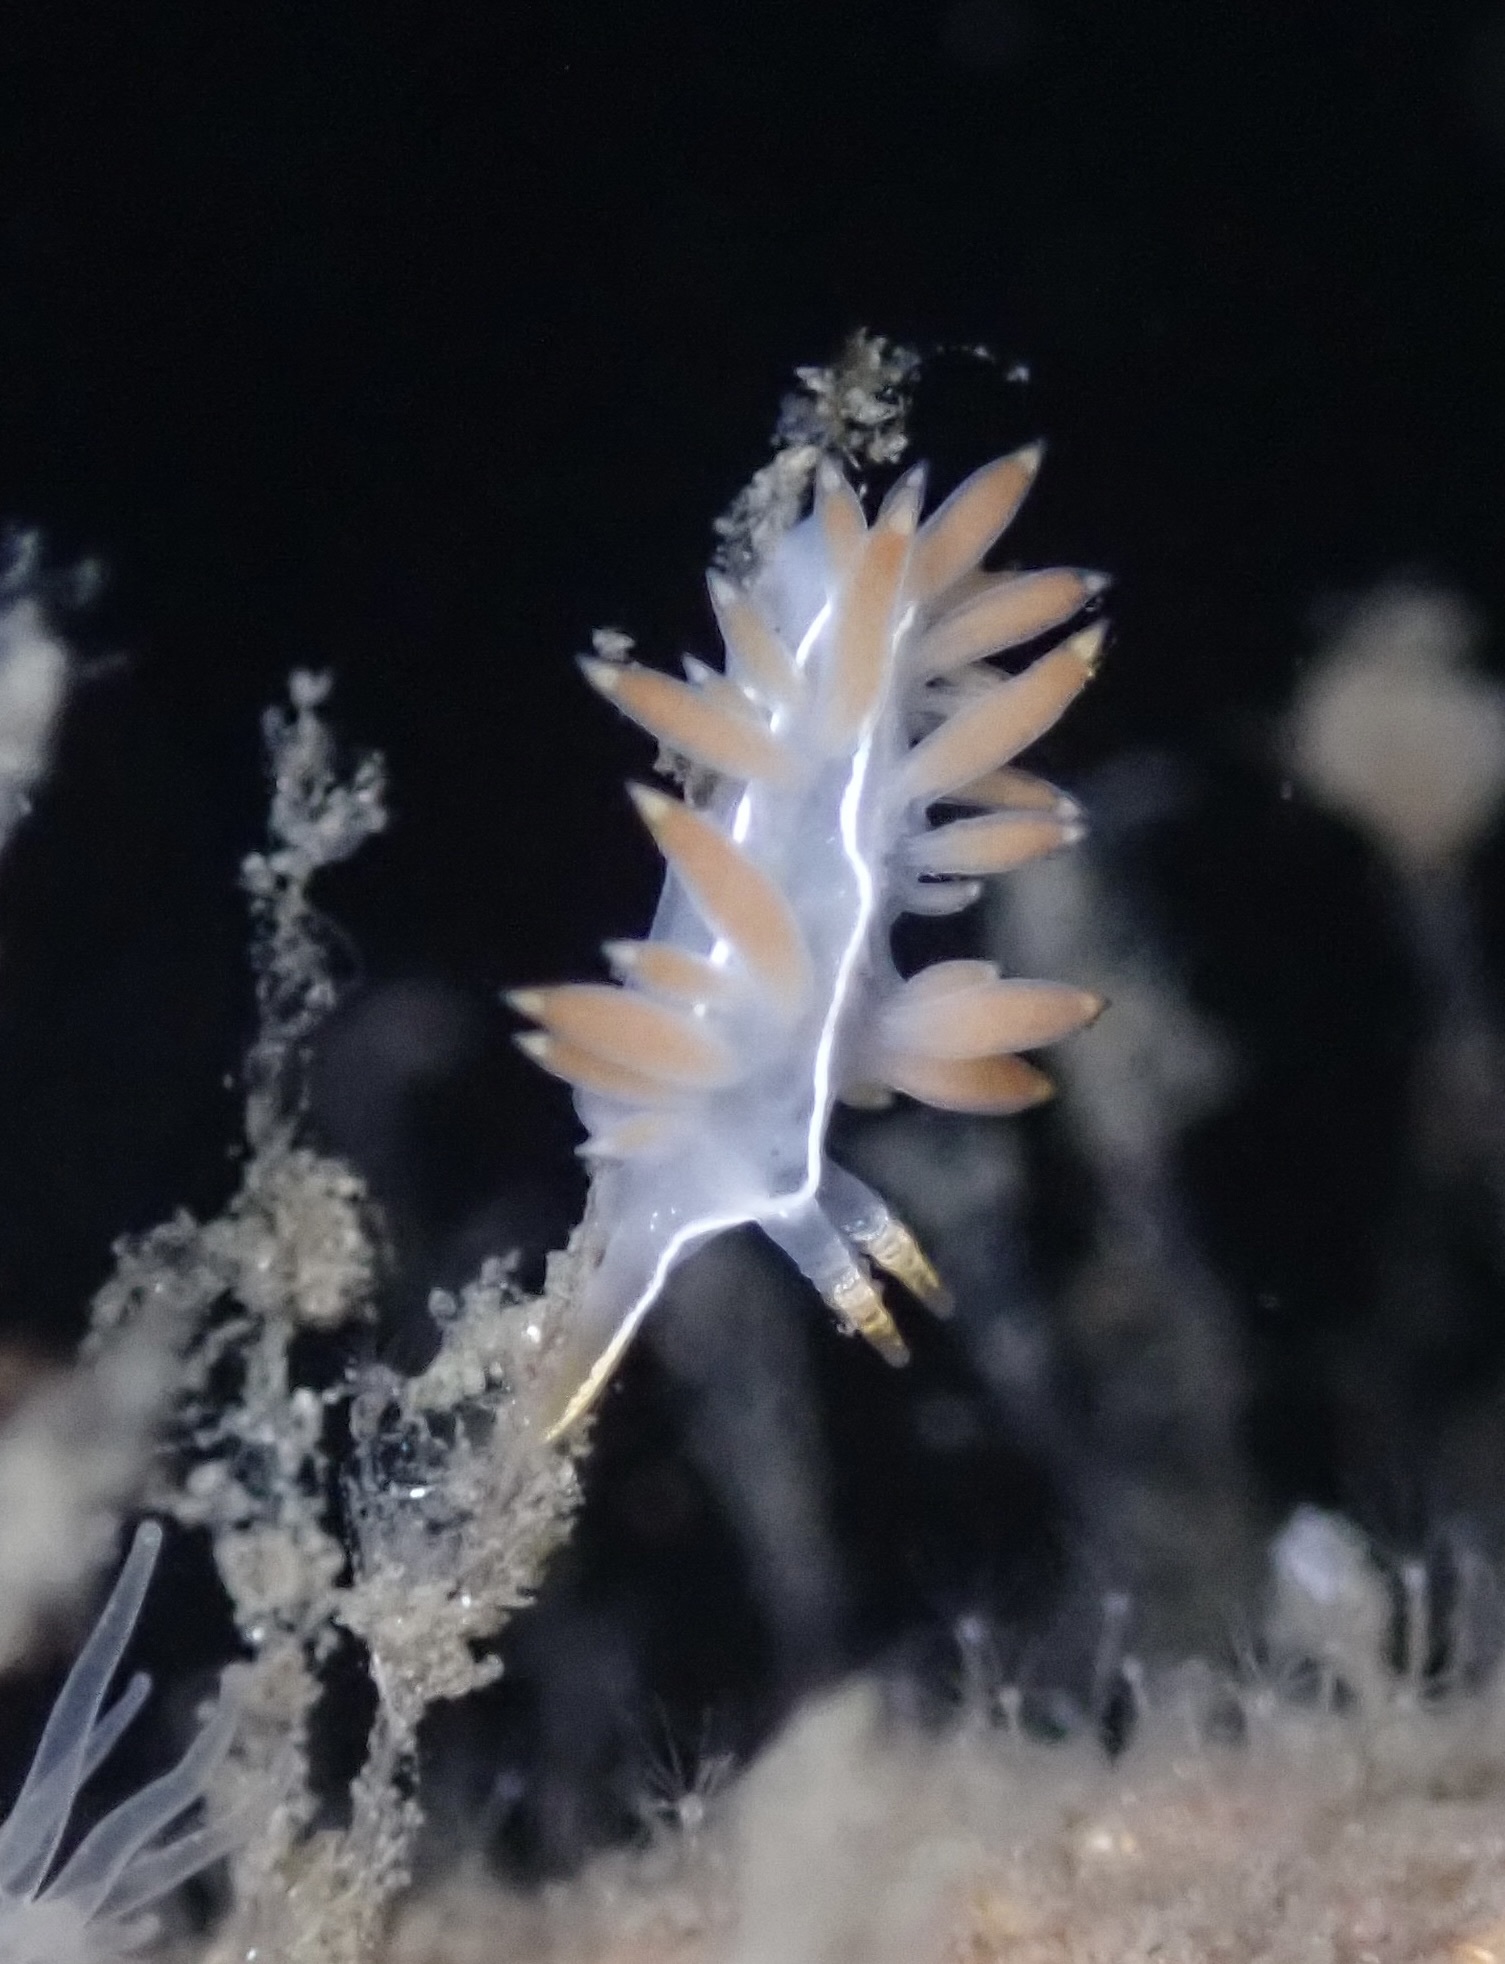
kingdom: Animalia
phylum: Mollusca
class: Gastropoda
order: Nudibranchia
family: Coryphellidae
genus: Coryphella
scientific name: Coryphella trilineata
